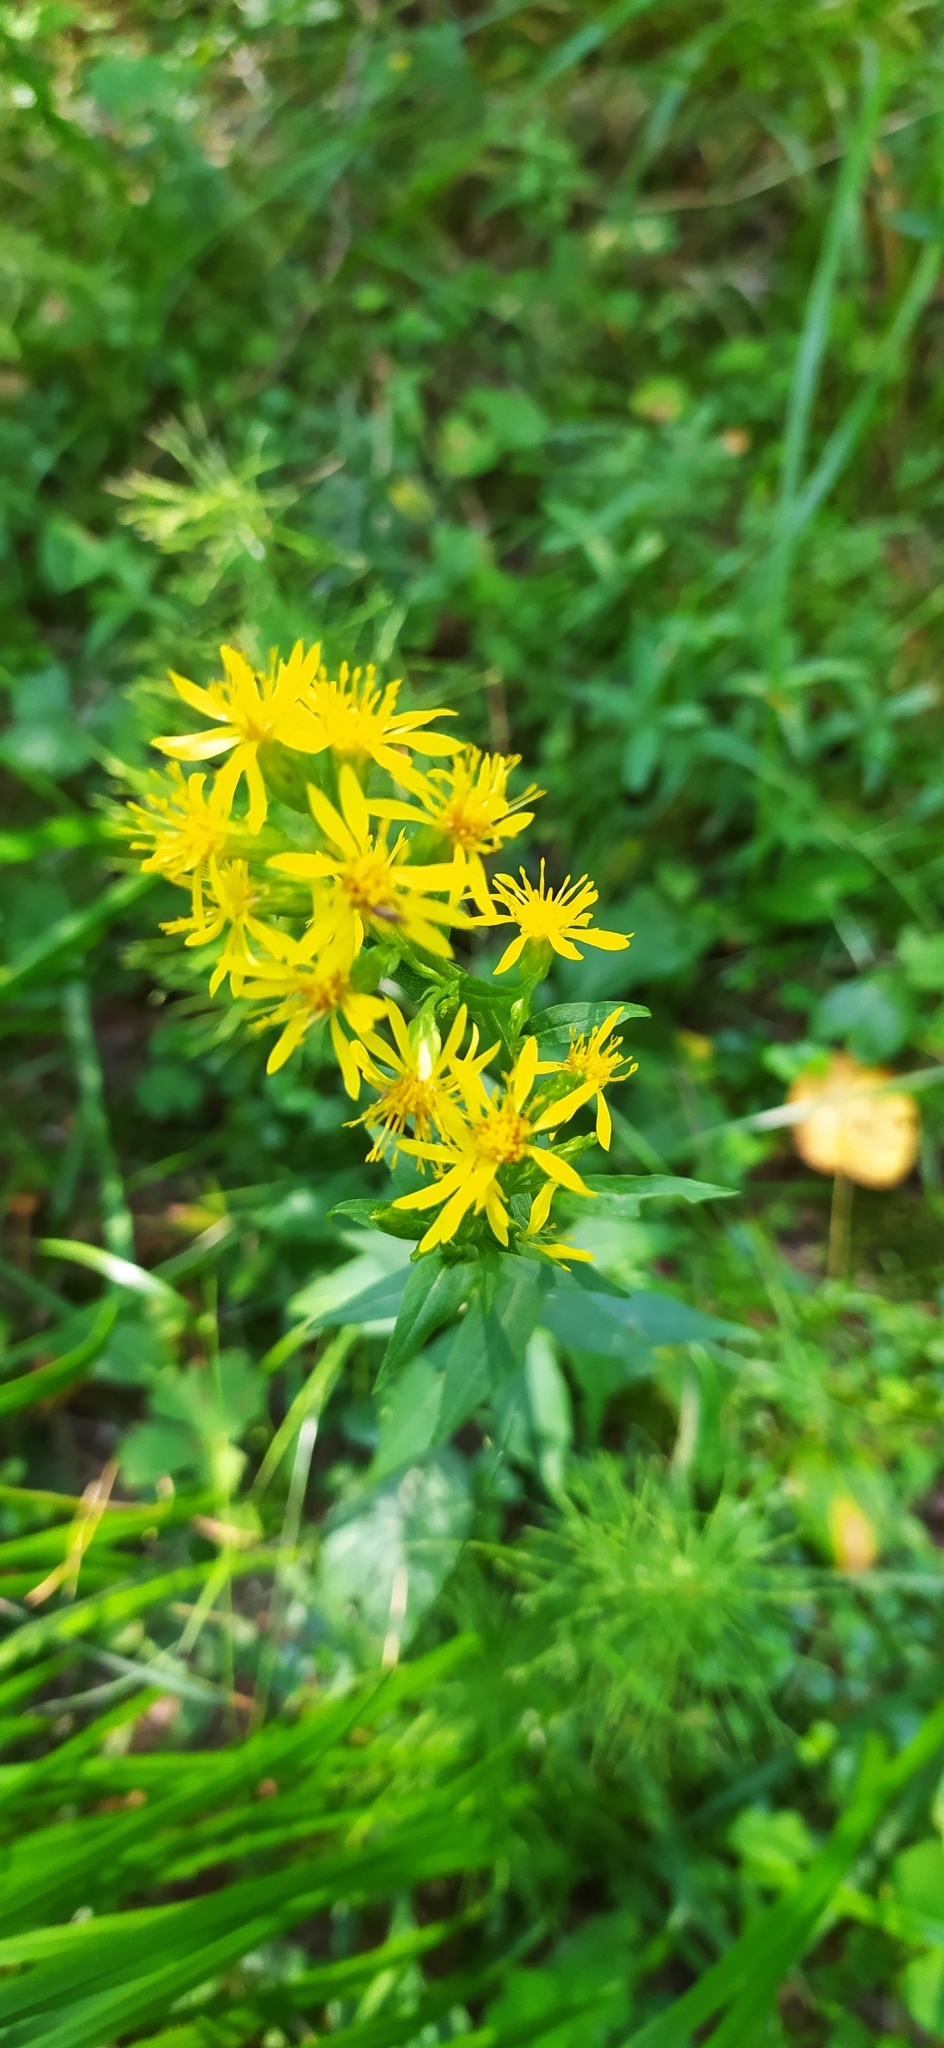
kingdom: Plantae
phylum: Tracheophyta
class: Magnoliopsida
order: Asterales
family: Asteraceae
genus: Solidago
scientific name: Solidago virgaurea
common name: Goldenrod
